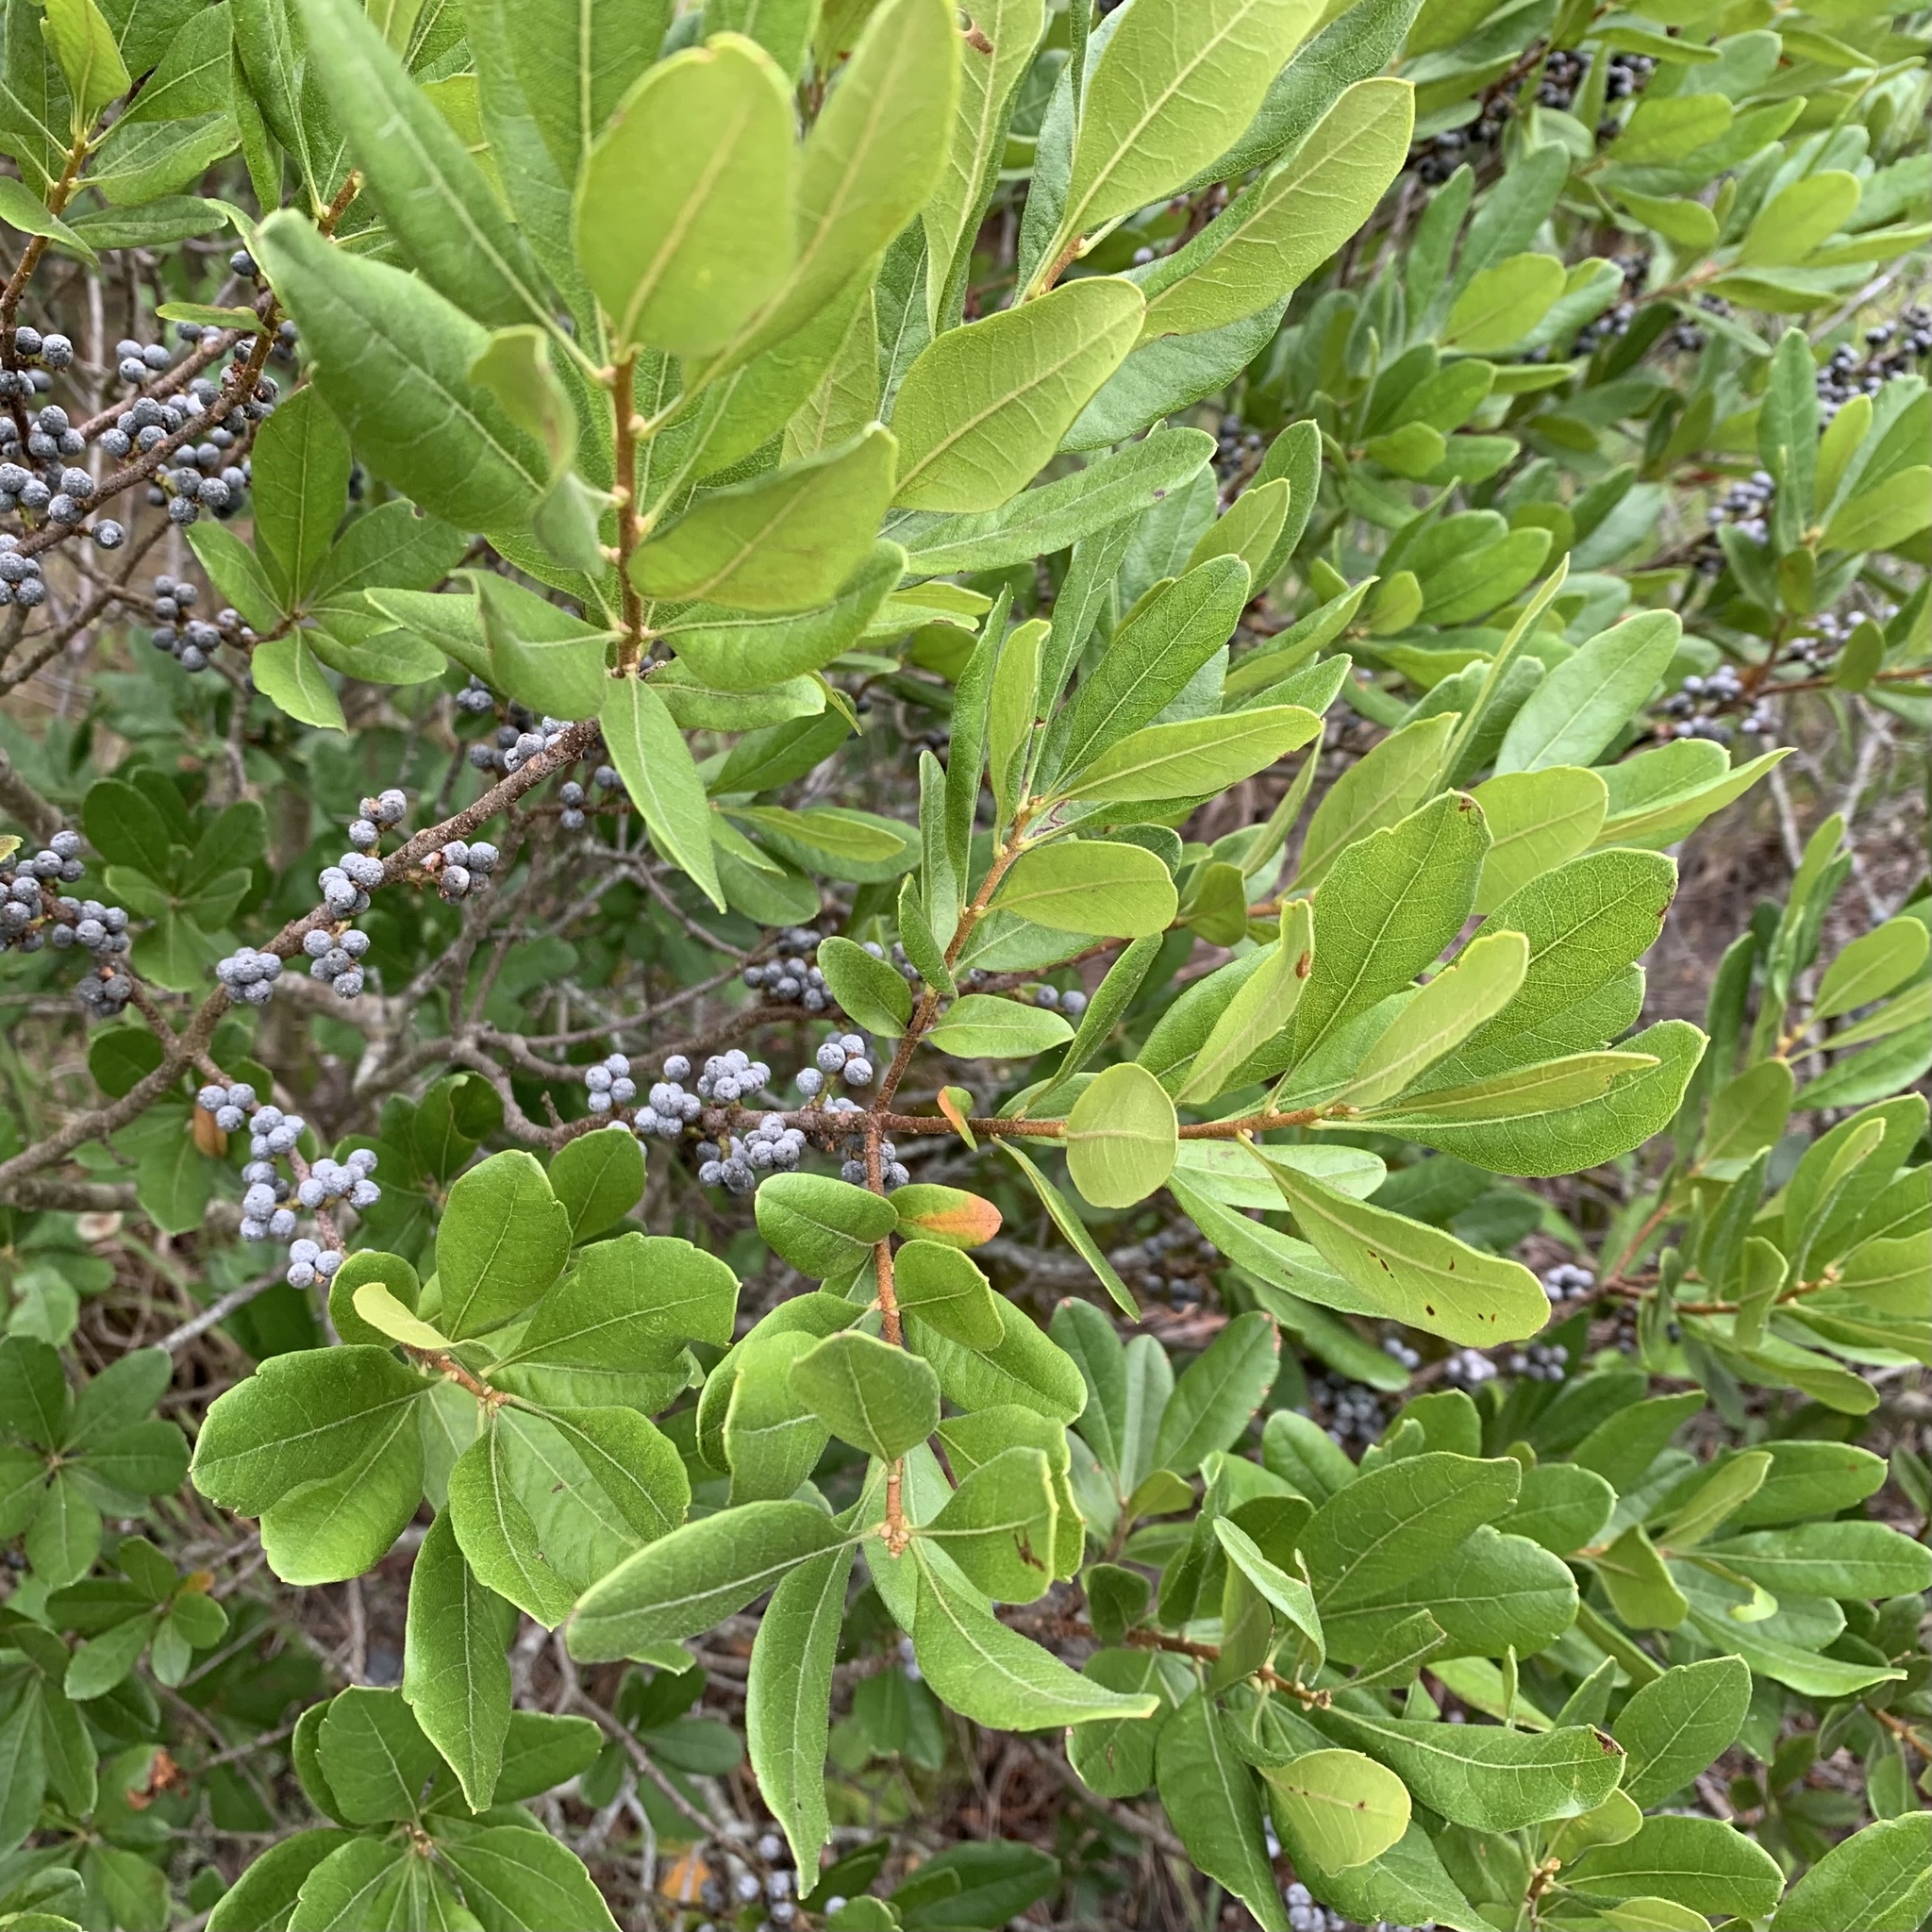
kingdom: Plantae
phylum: Tracheophyta
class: Magnoliopsida
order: Fagales
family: Myricaceae
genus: Morella
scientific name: Morella pensylvanica
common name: Northern bayberry
